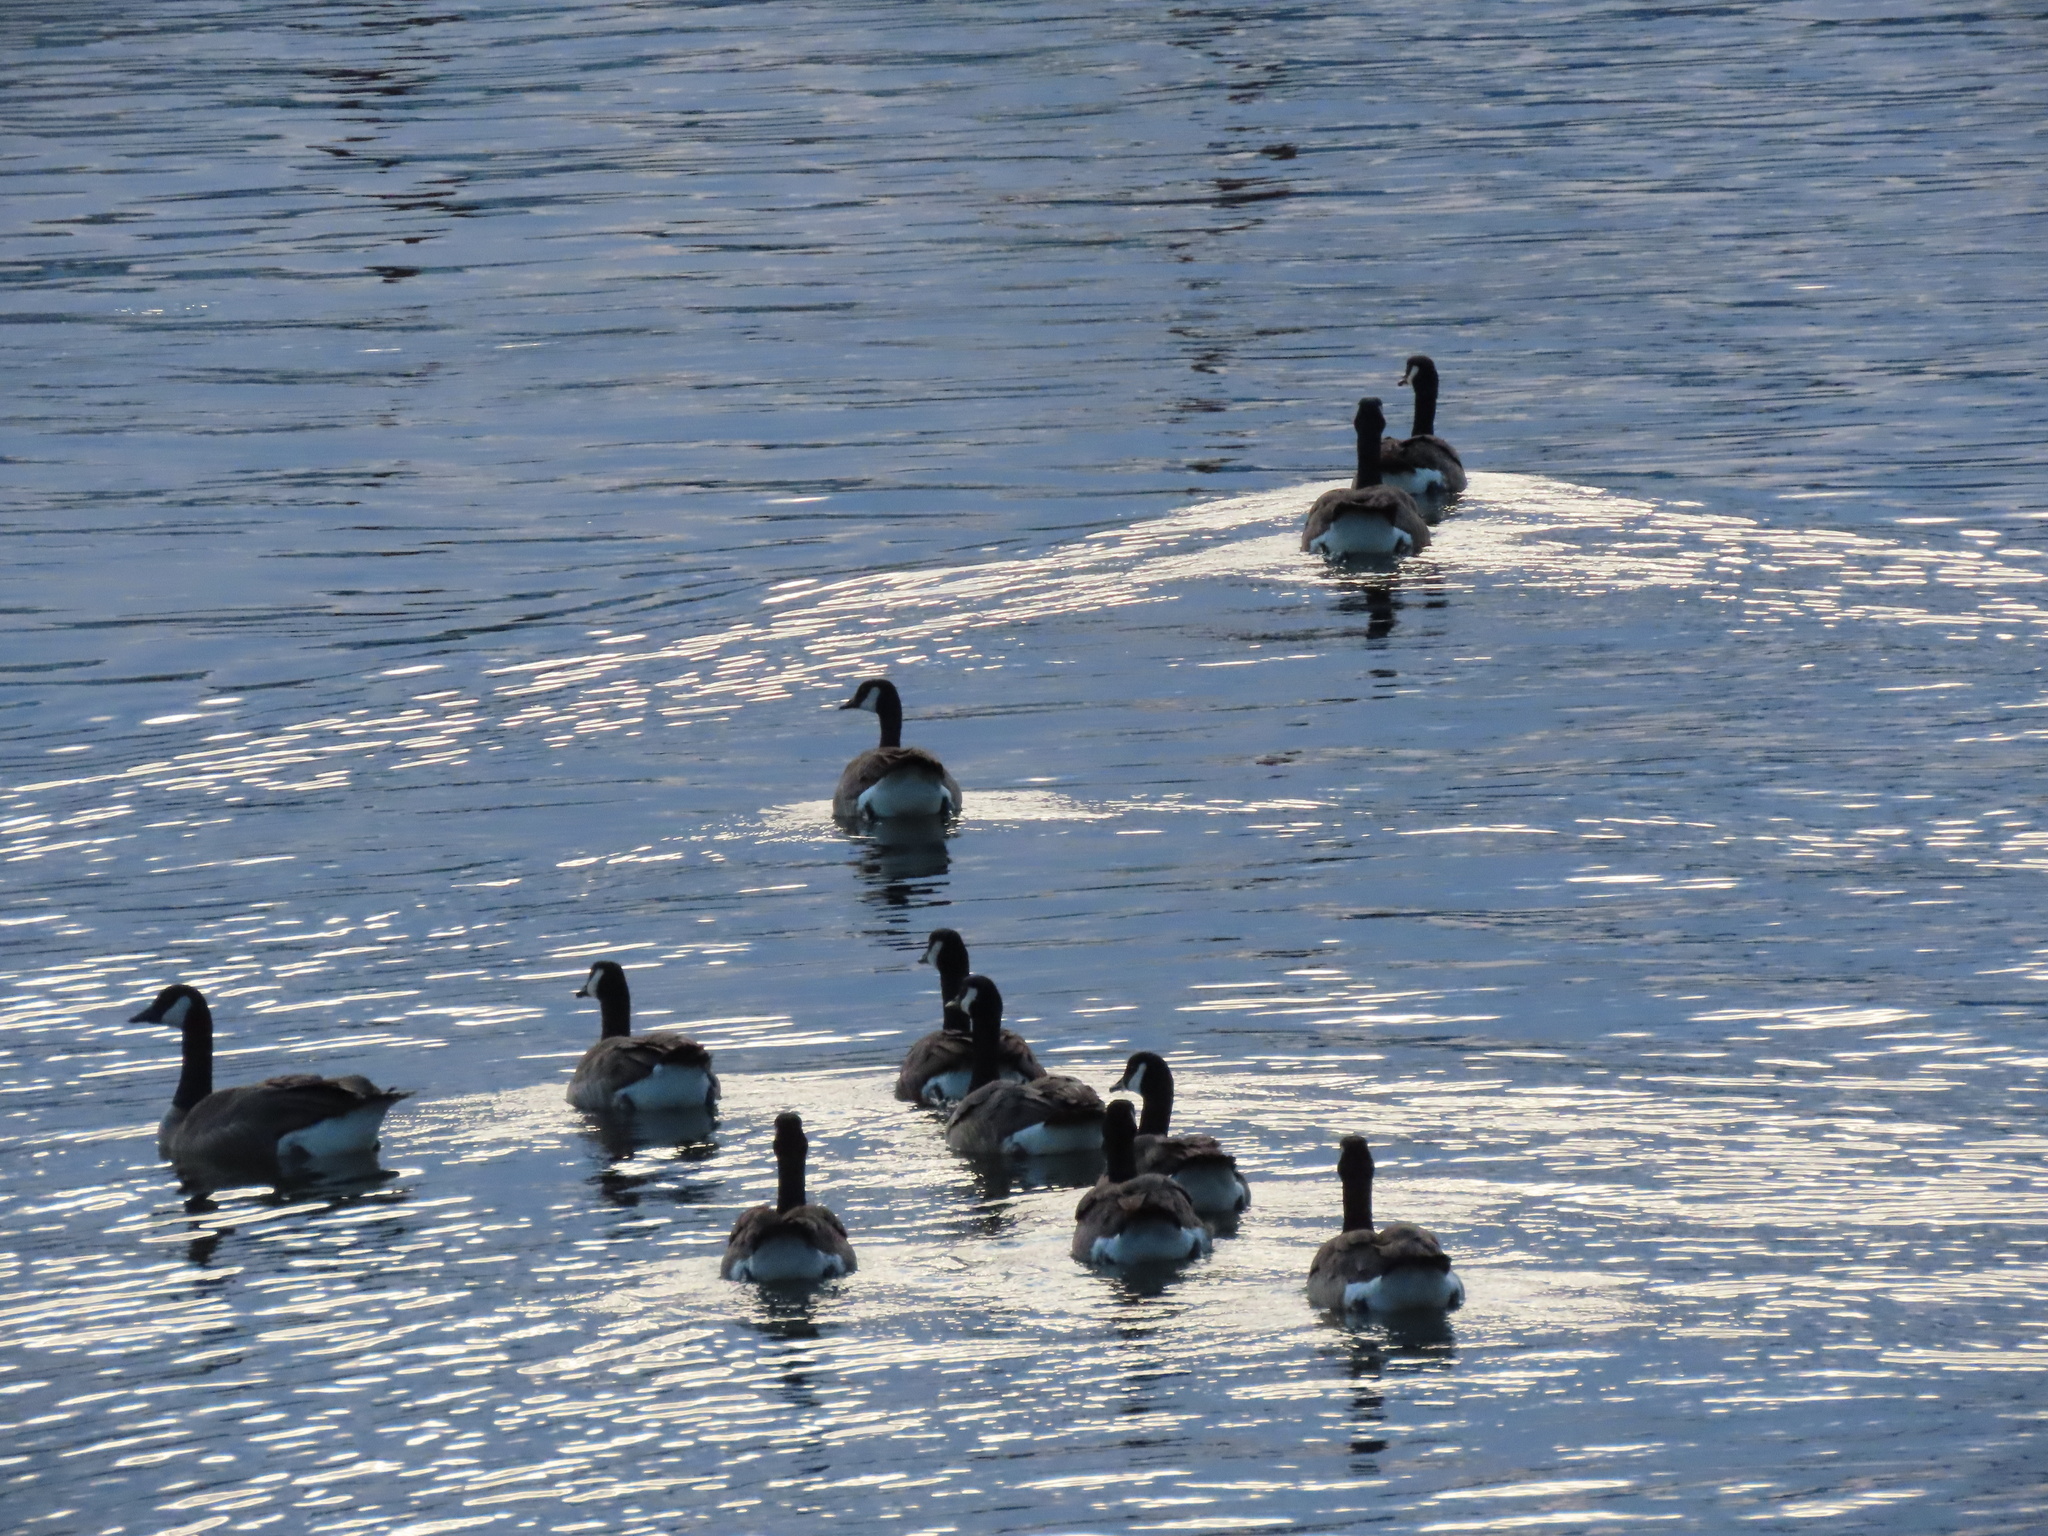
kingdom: Animalia
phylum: Chordata
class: Aves
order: Anseriformes
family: Anatidae
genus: Branta
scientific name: Branta canadensis
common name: Canada goose
